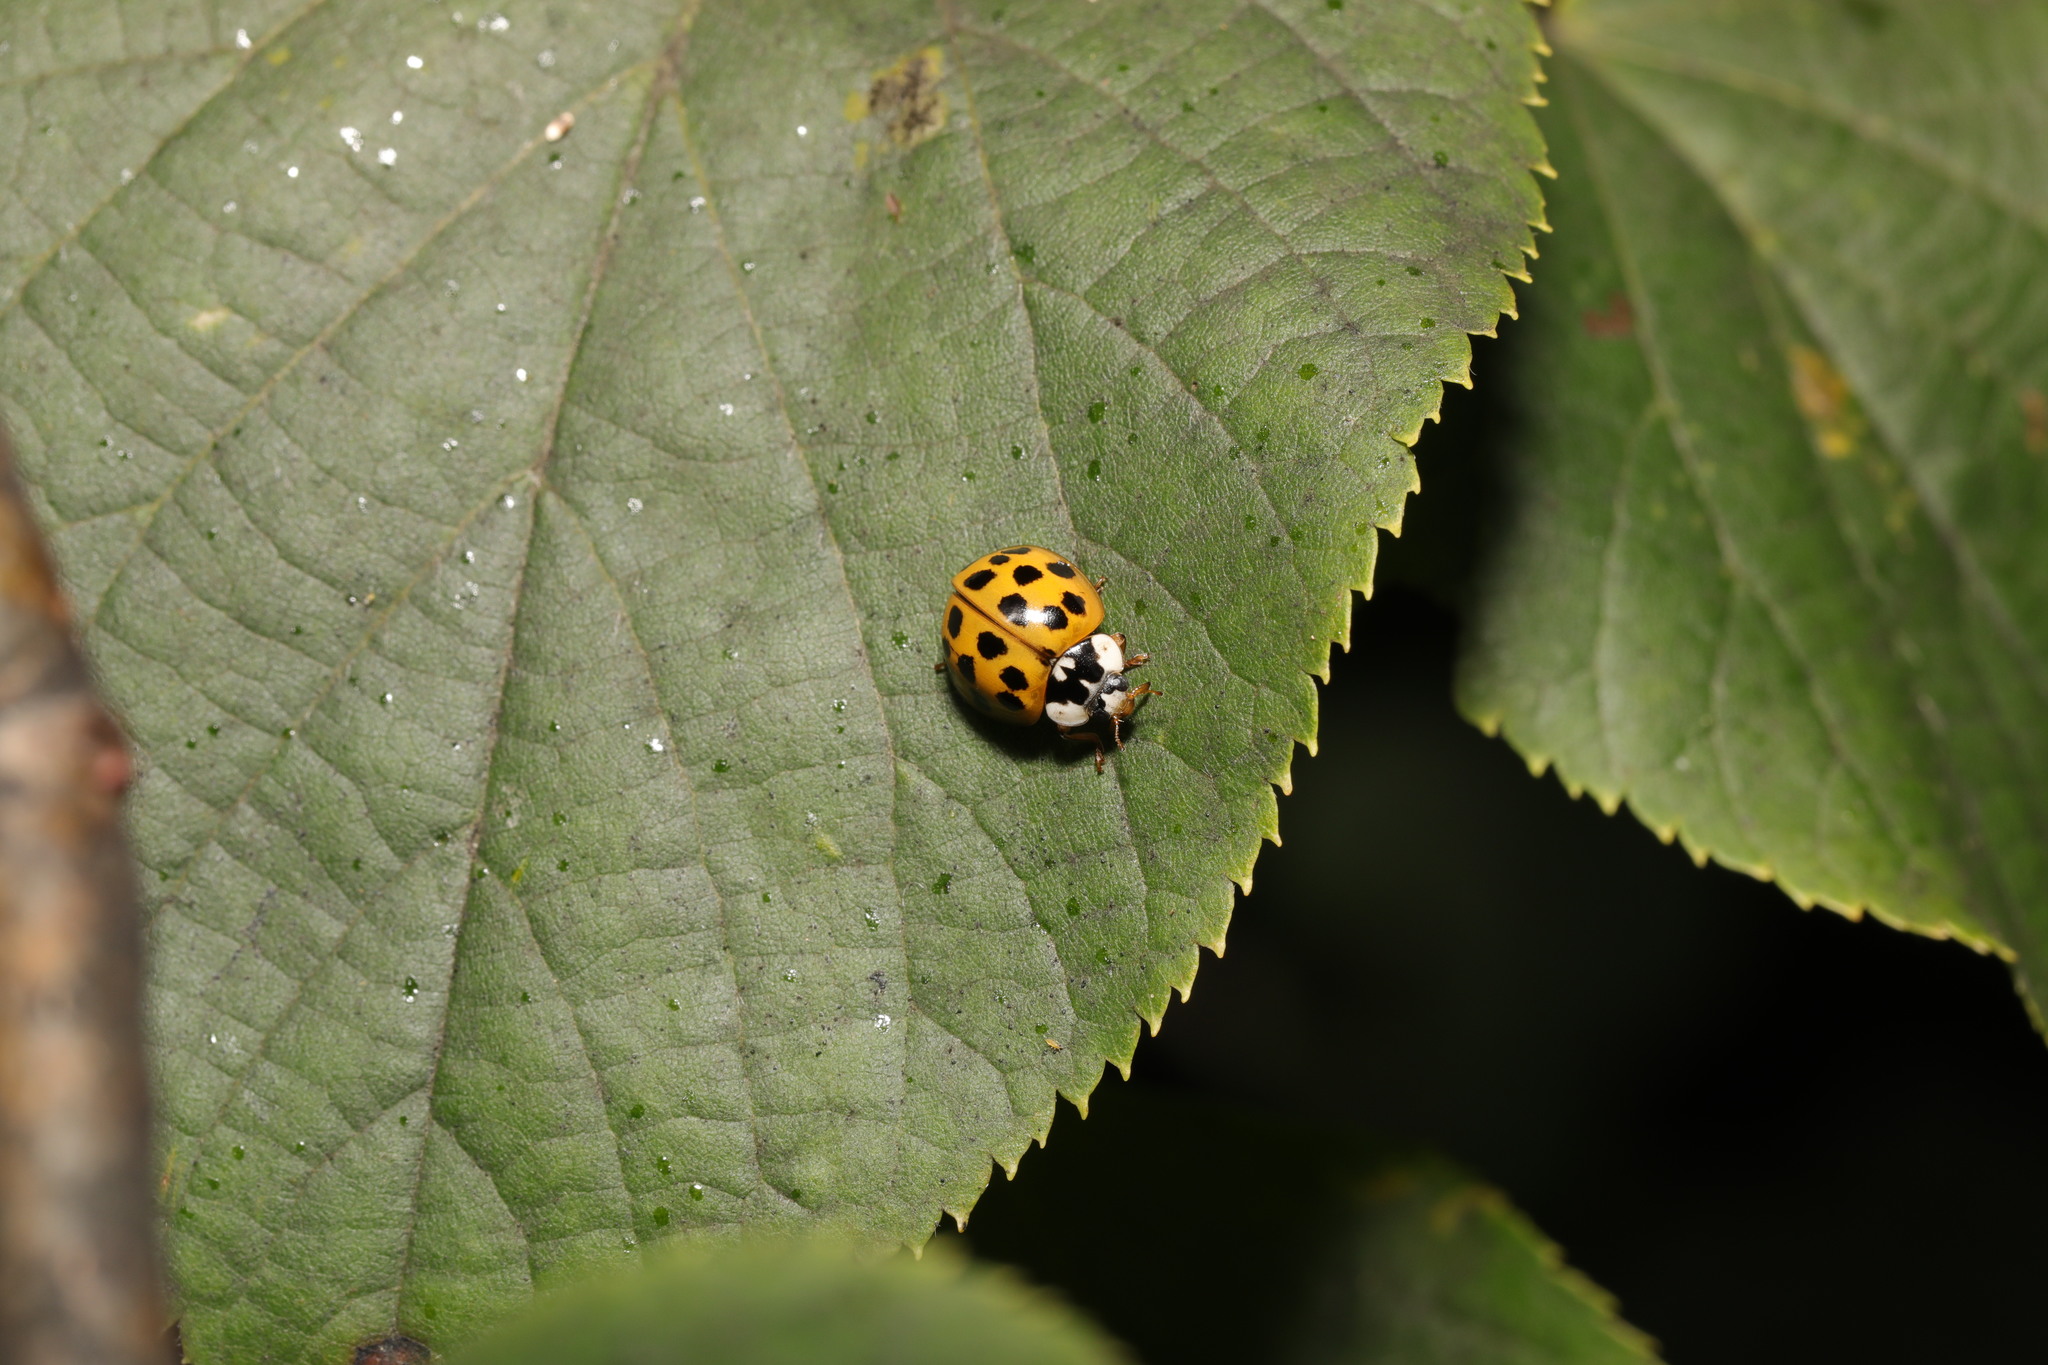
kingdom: Animalia
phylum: Arthropoda
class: Insecta
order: Coleoptera
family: Coccinellidae
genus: Harmonia
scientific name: Harmonia axyridis
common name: Harlequin ladybird
